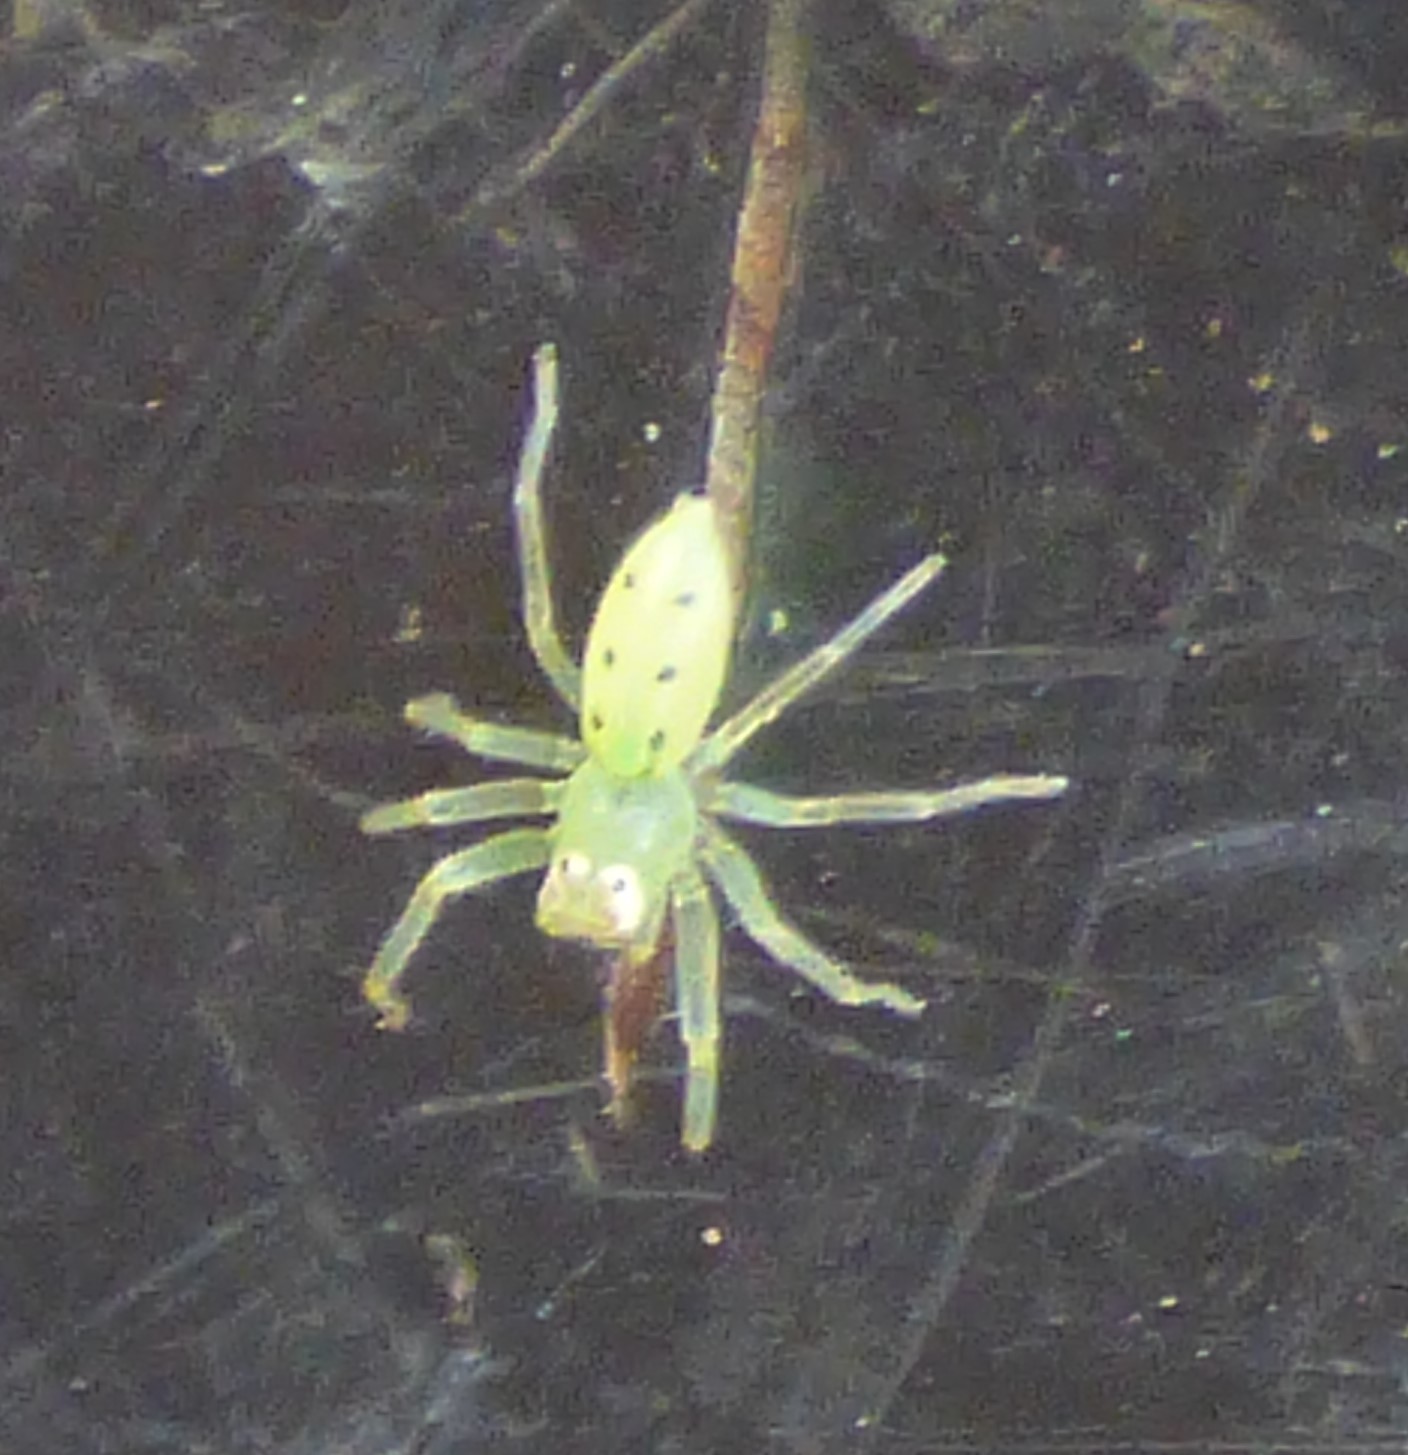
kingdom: Animalia
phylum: Arthropoda
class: Arachnida
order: Araneae
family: Salticidae
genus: Lyssomanes
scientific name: Lyssomanes viridis
